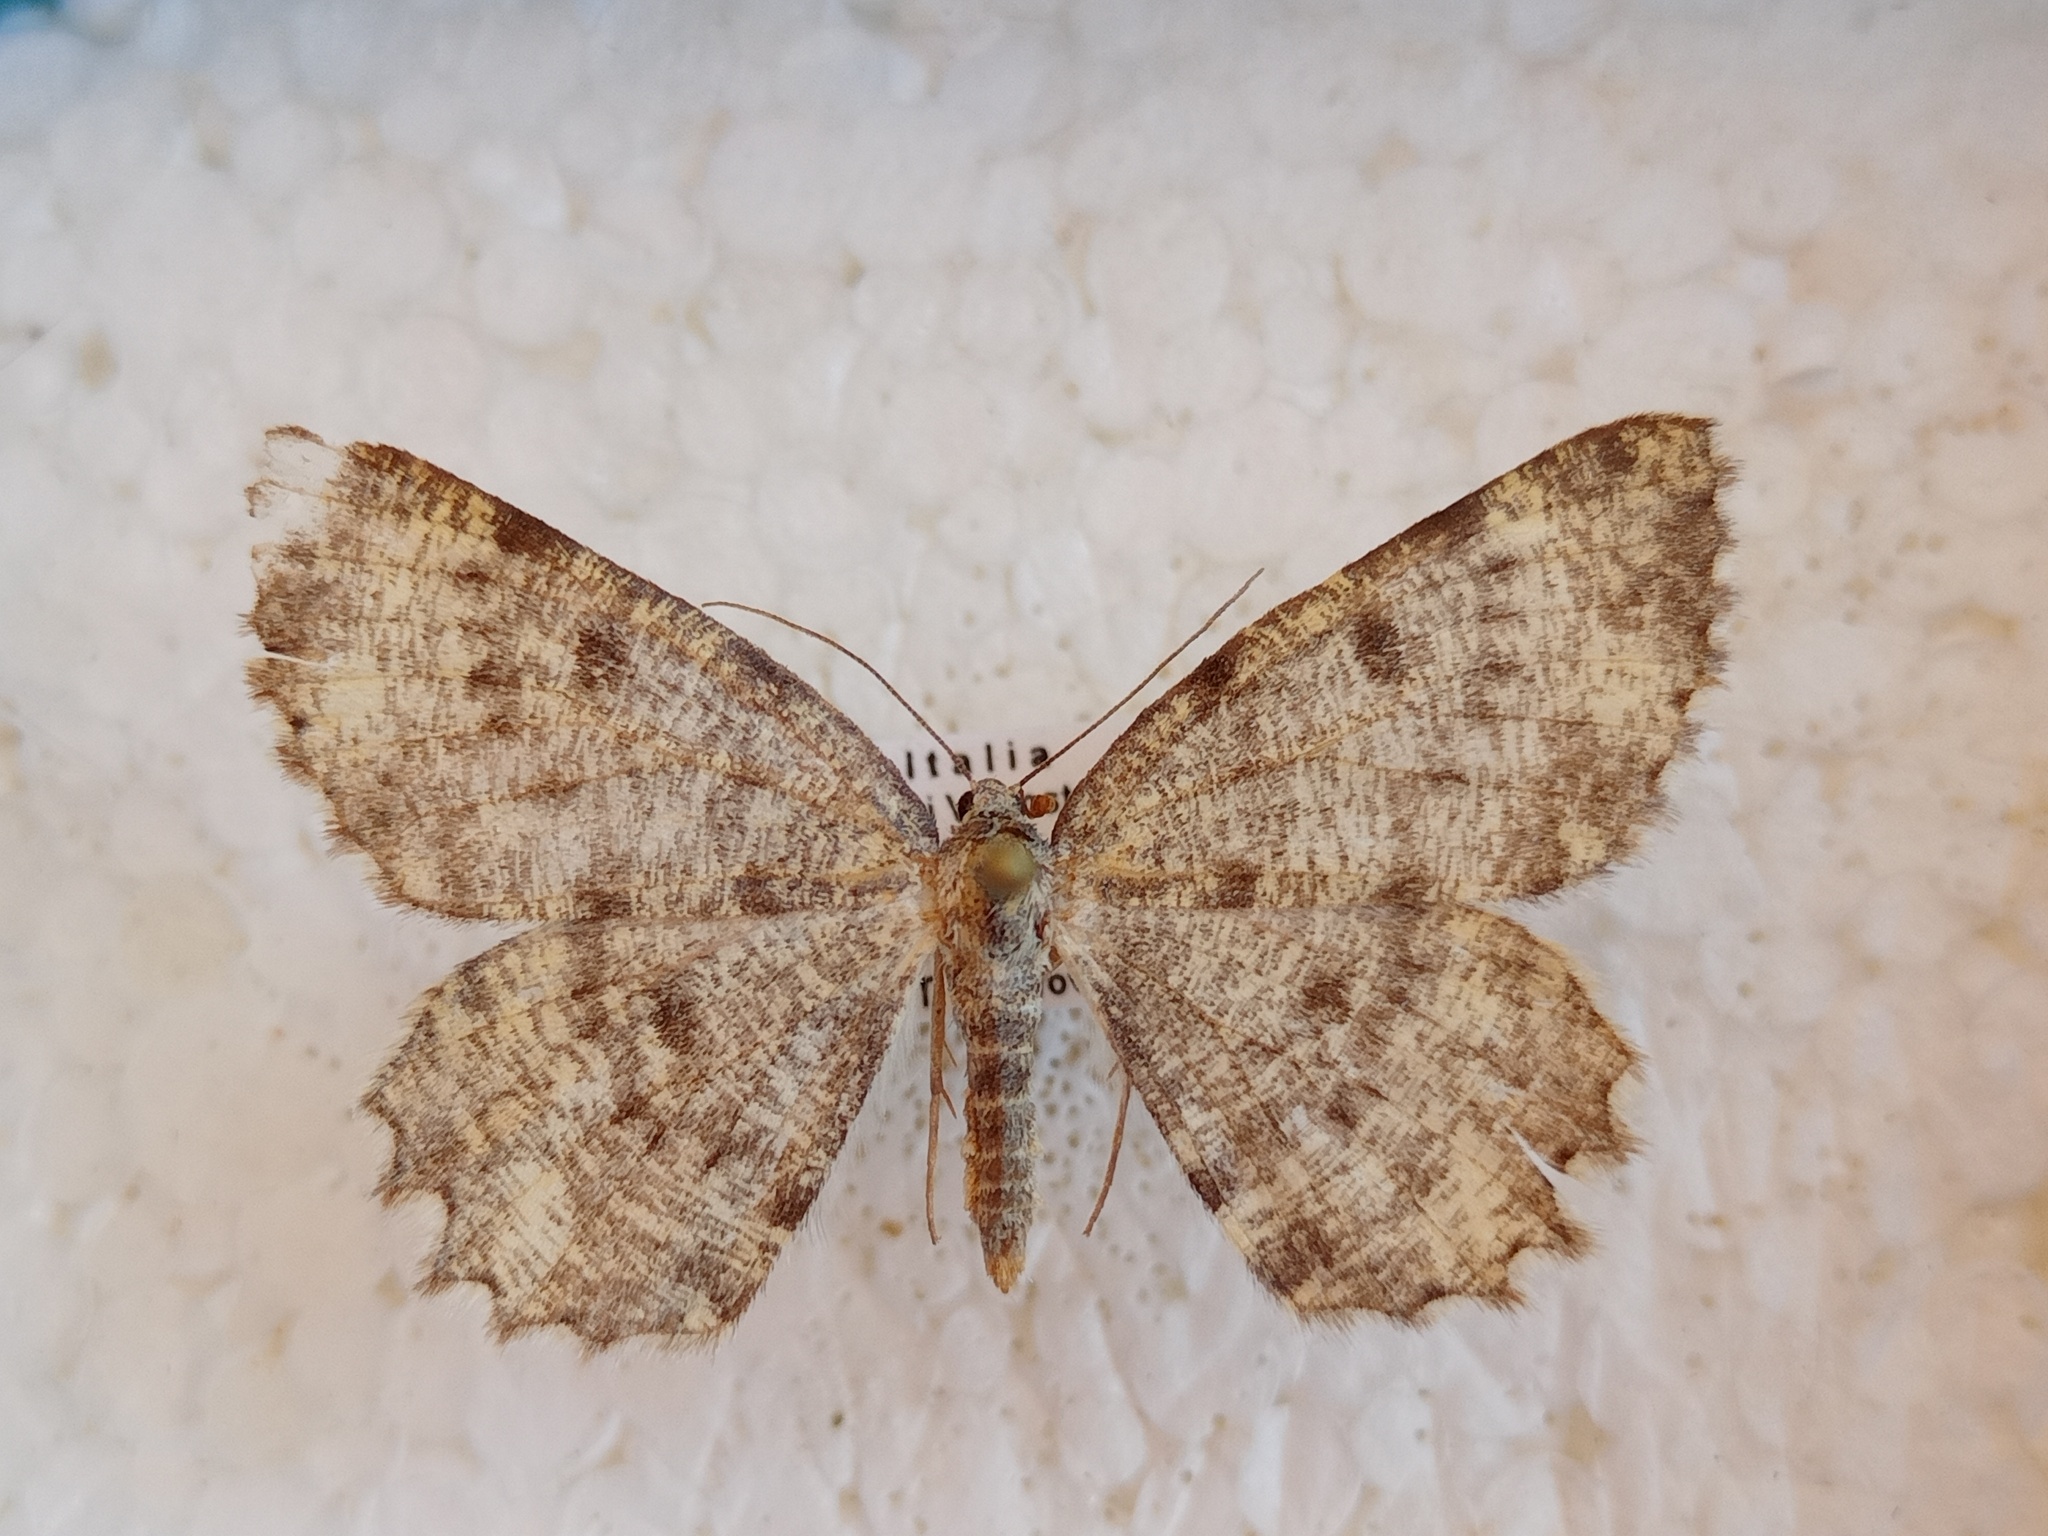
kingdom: Animalia
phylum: Arthropoda
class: Insecta
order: Lepidoptera
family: Geometridae
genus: Charissa
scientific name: Charissa supinaria
